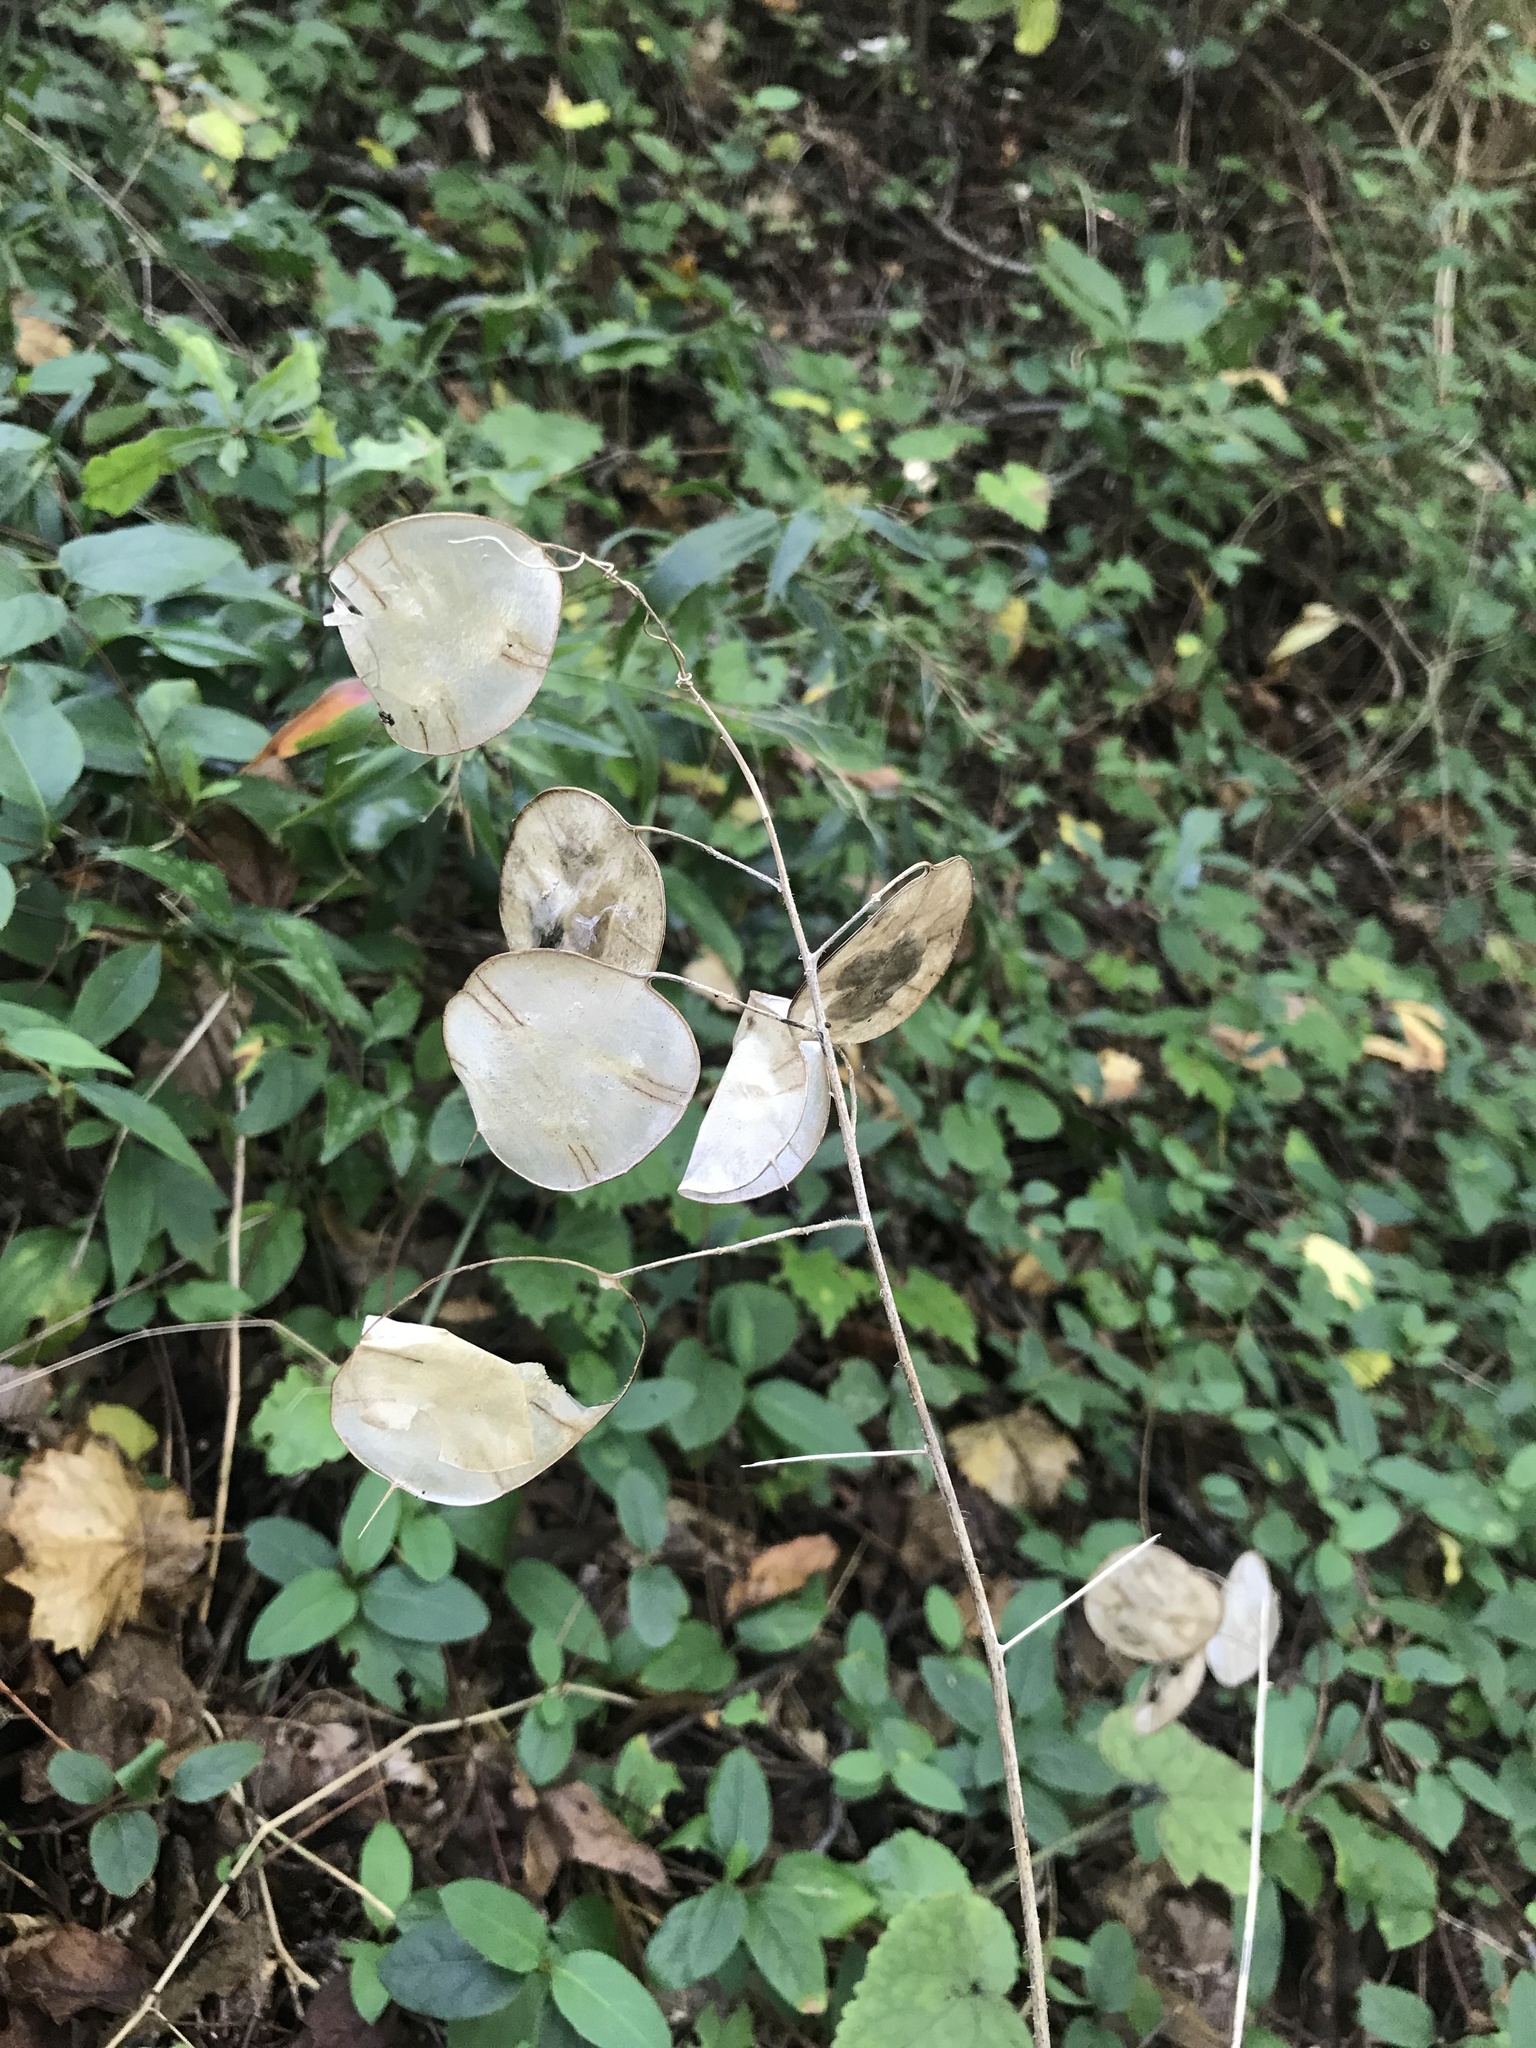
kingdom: Plantae
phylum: Tracheophyta
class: Magnoliopsida
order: Brassicales
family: Brassicaceae
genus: Lunaria
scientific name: Lunaria annua
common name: Honesty
